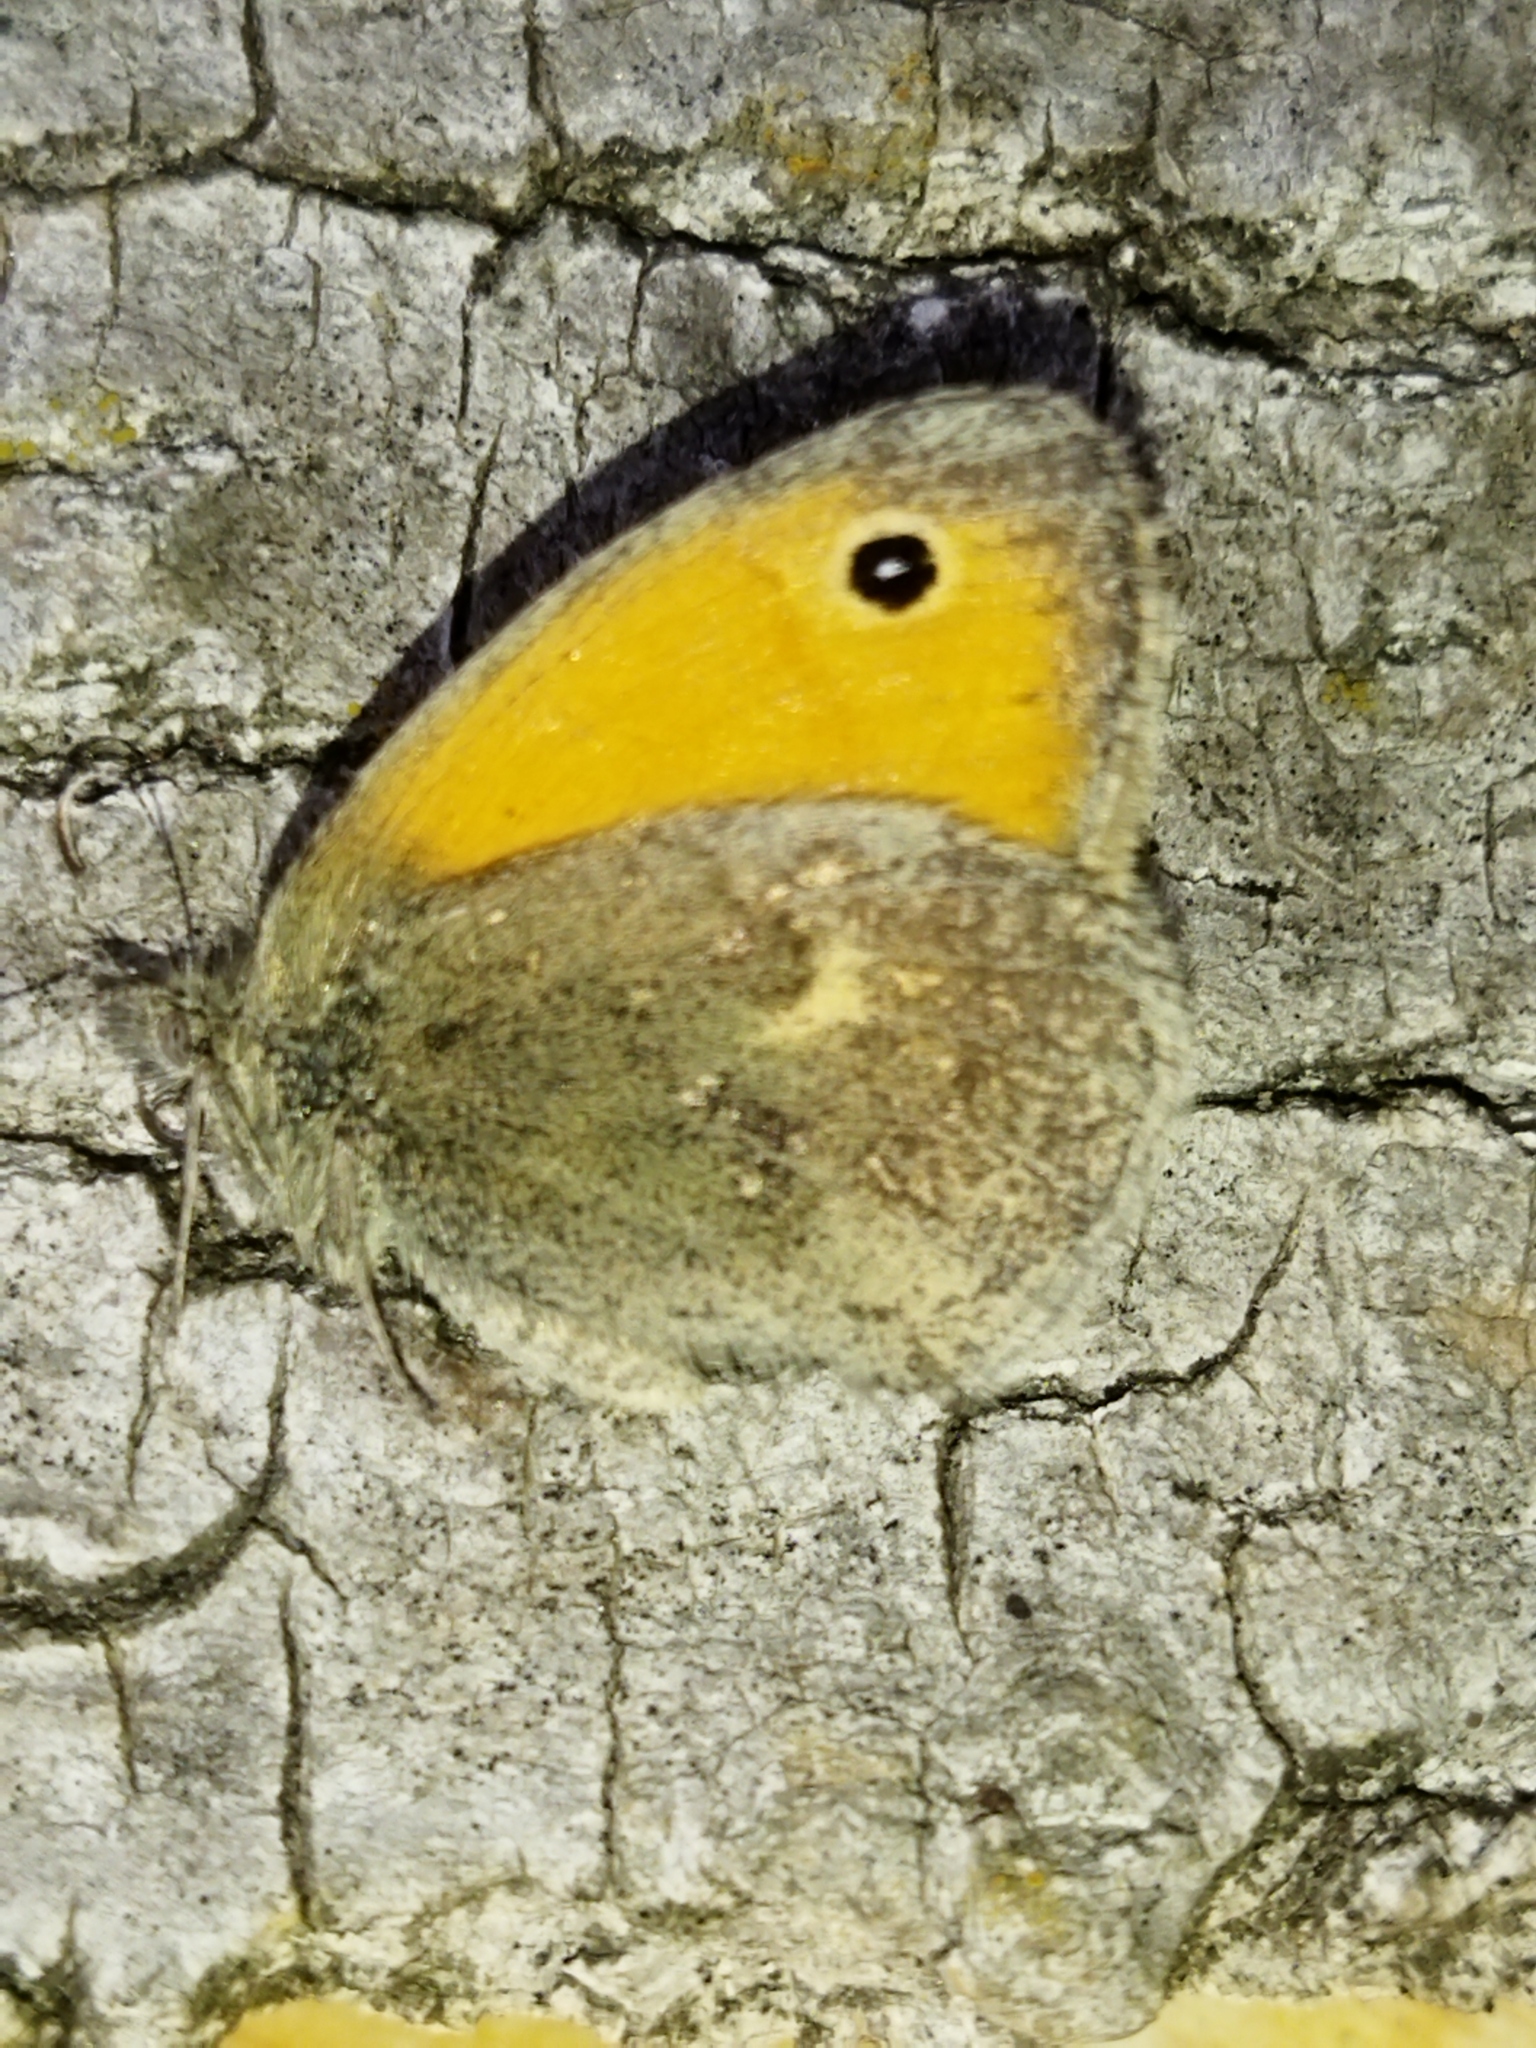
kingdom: Animalia
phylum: Arthropoda
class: Insecta
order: Lepidoptera
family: Nymphalidae
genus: Coenonympha
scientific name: Coenonympha pamphilus
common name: Small heath
